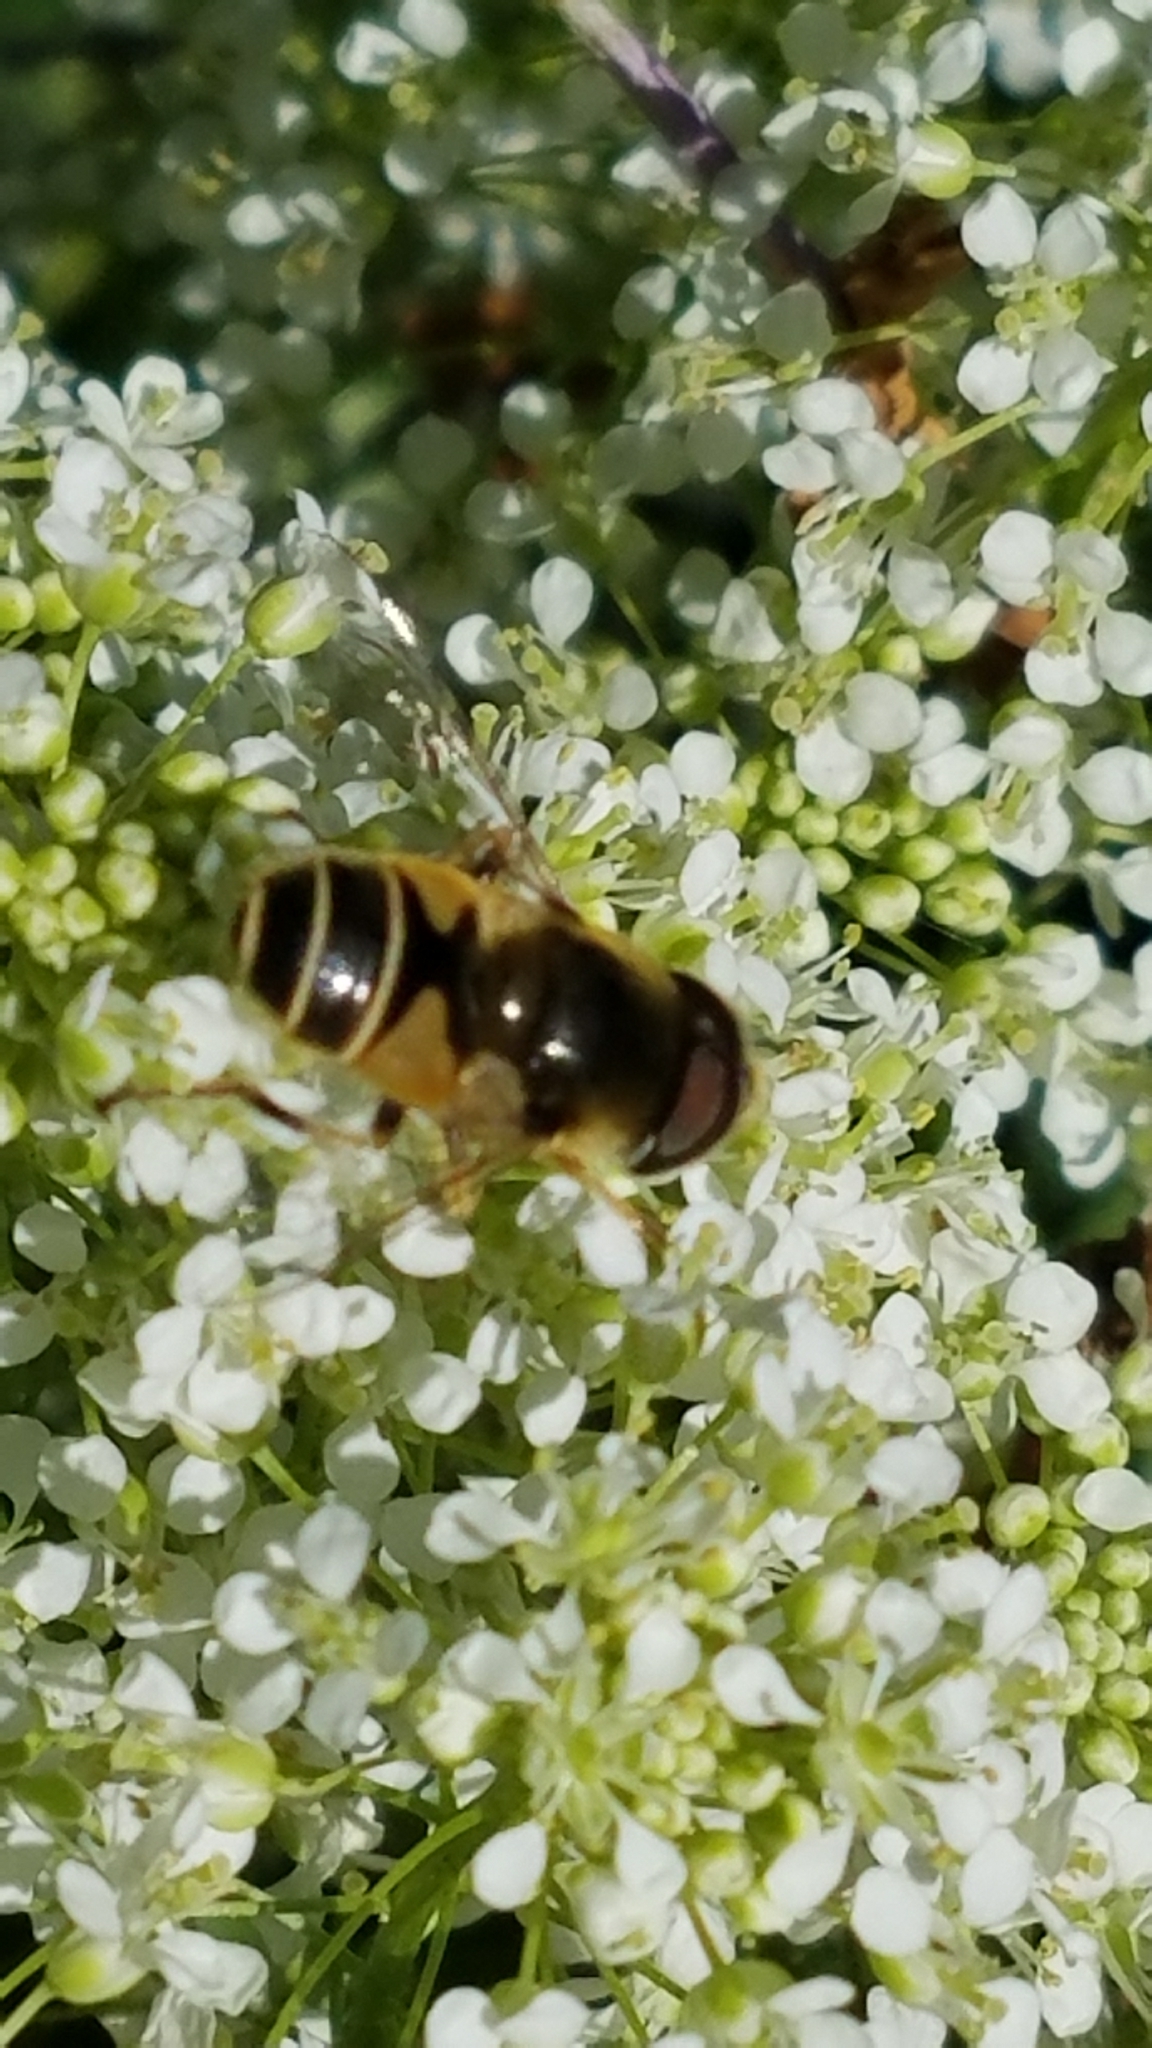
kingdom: Animalia
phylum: Arthropoda
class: Insecta
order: Diptera
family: Syrphidae
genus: Eristalis
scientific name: Eristalis hirta
